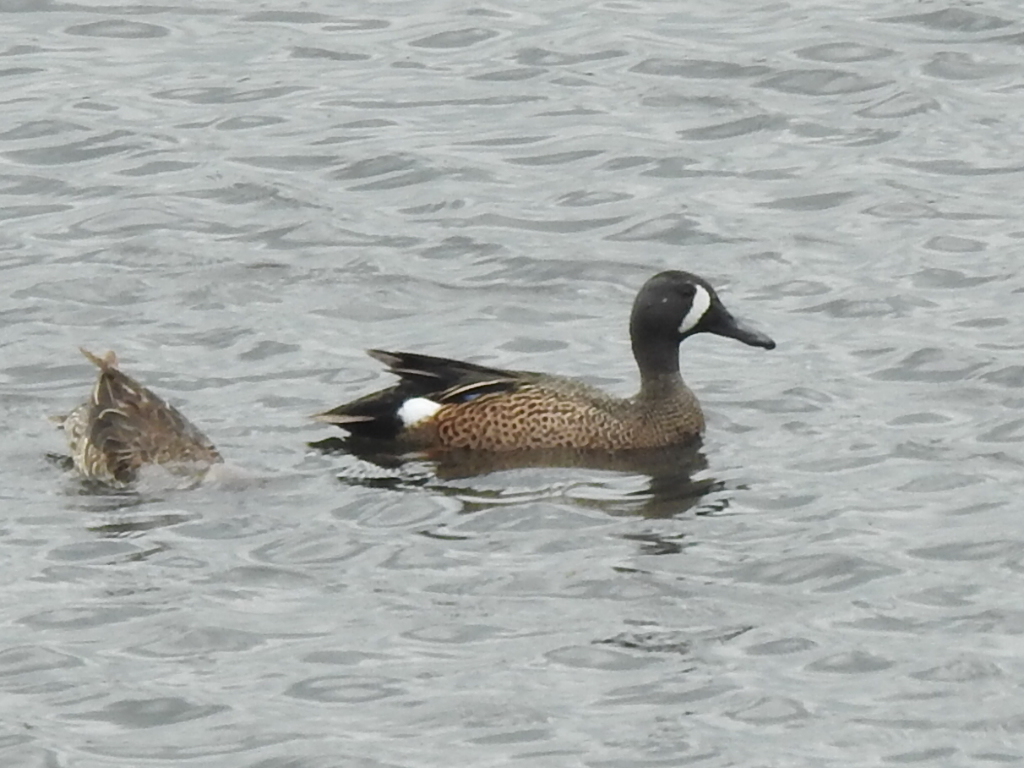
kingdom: Animalia
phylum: Chordata
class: Aves
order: Anseriformes
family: Anatidae
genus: Spatula
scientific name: Spatula discors
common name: Blue-winged teal
